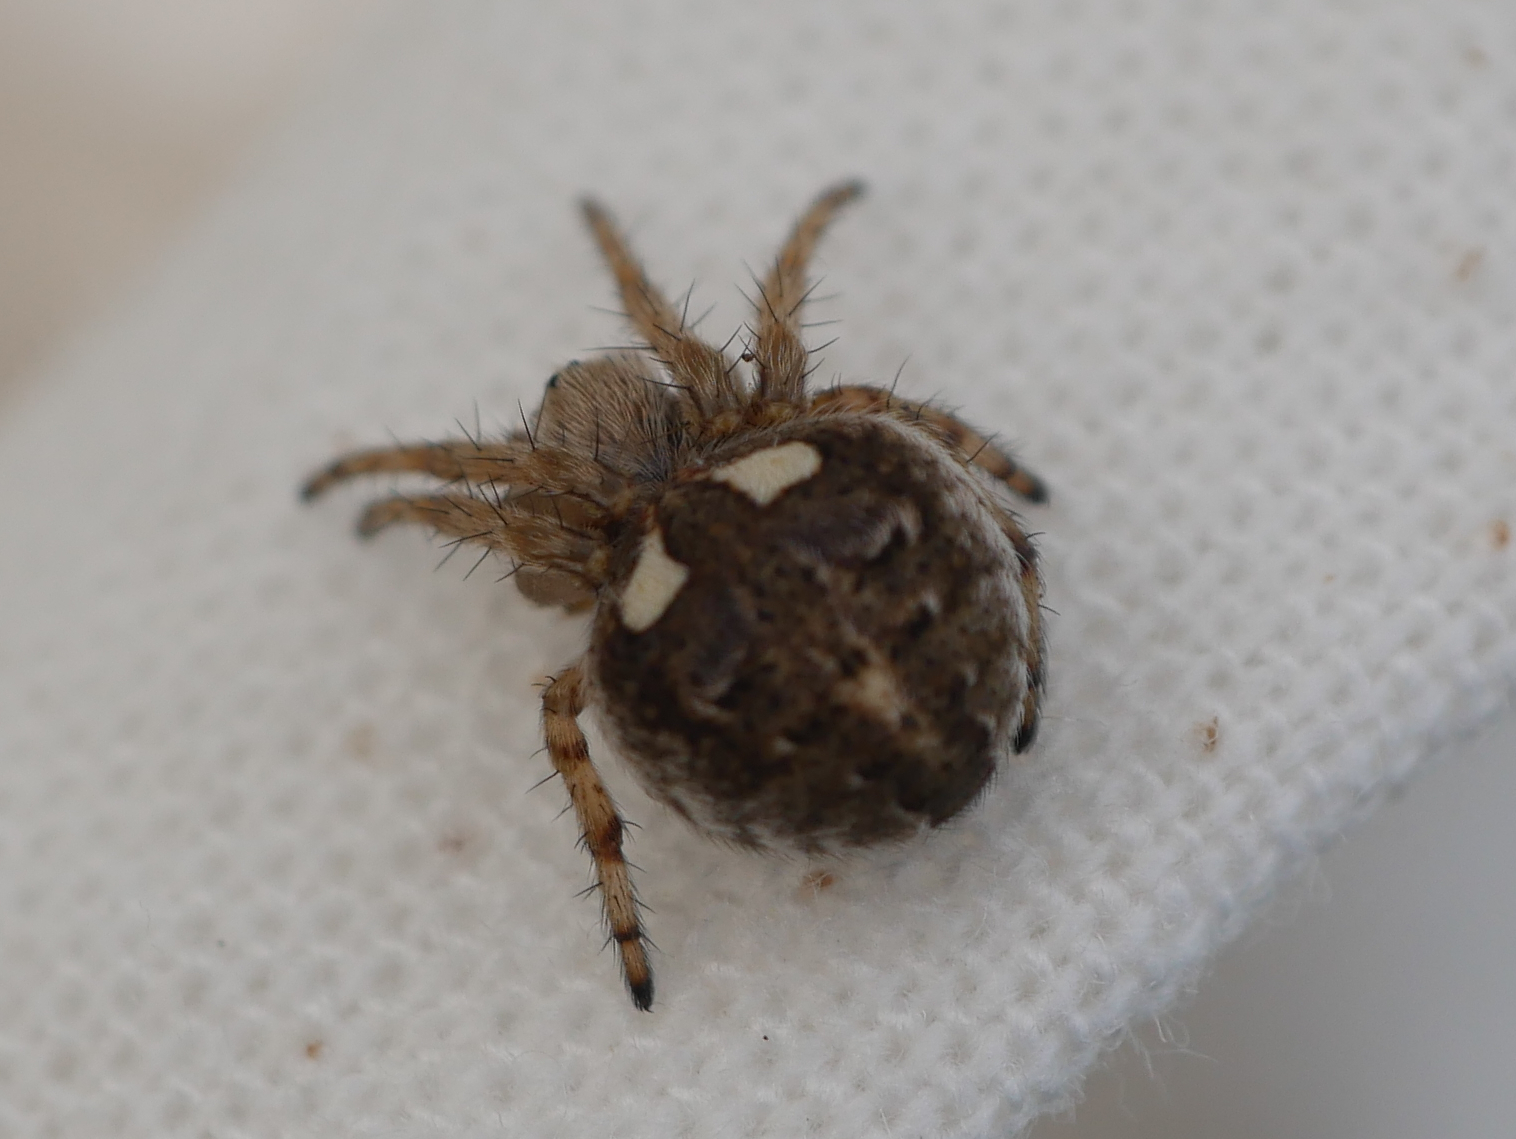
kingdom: Animalia
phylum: Arthropoda
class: Arachnida
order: Araneae
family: Araneidae
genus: Agalenatea
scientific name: Agalenatea redii
